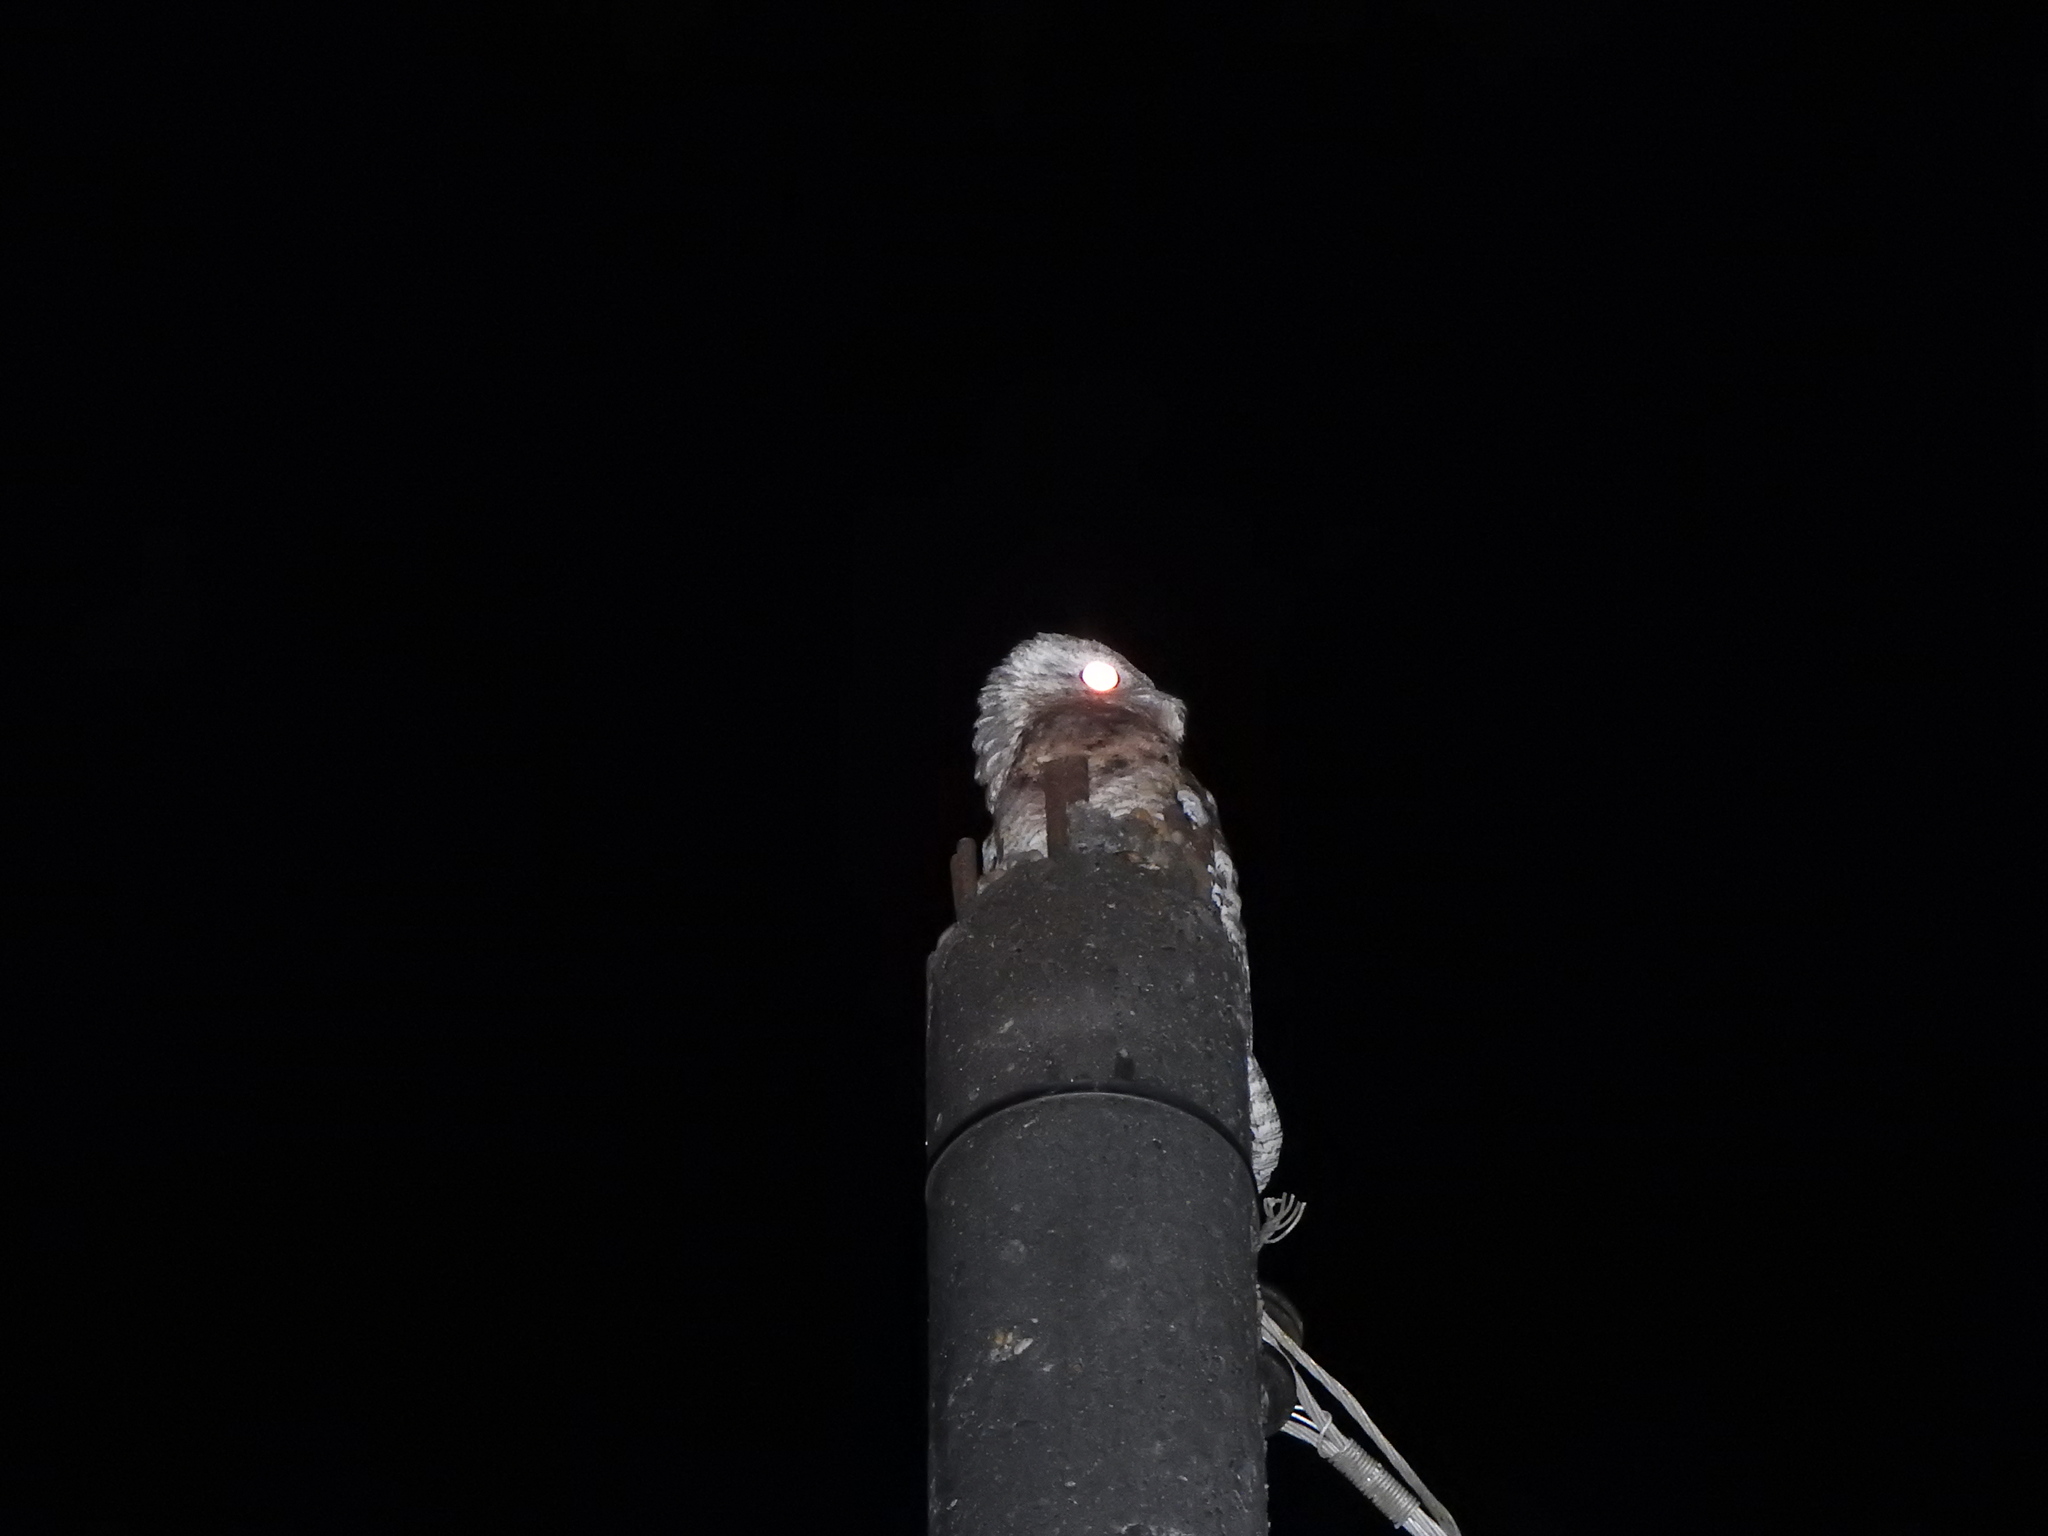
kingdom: Animalia
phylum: Chordata
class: Aves
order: Nyctibiiformes
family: Nyctibiidae
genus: Nyctibius
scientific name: Nyctibius grandis
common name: Great potoo
